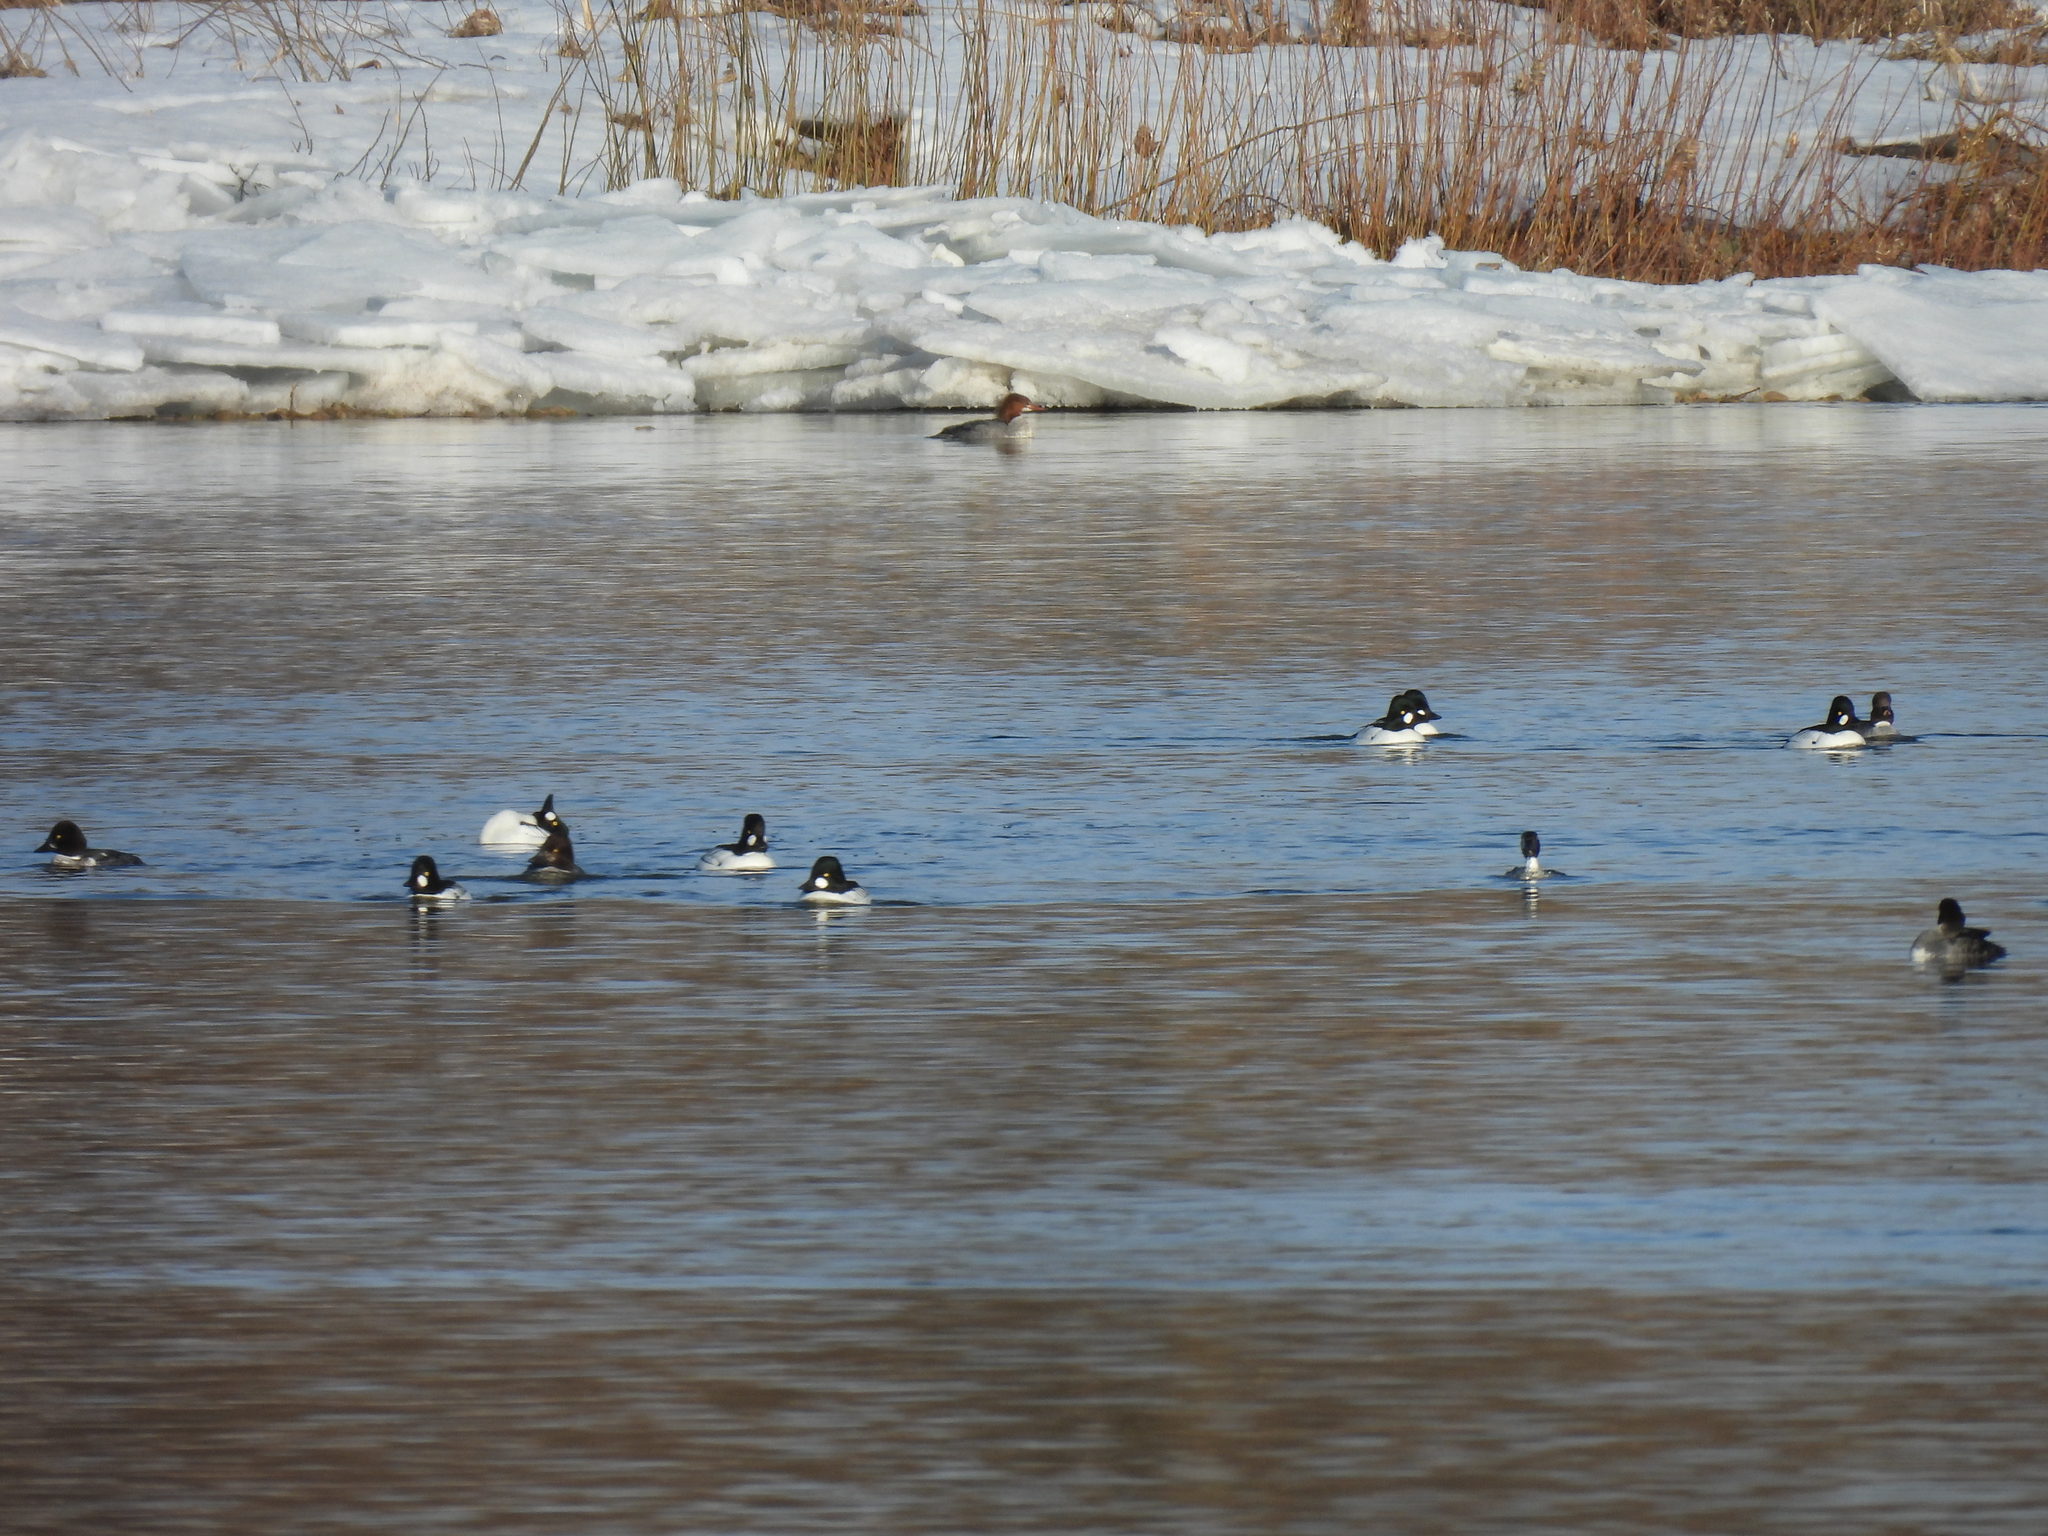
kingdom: Animalia
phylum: Chordata
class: Aves
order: Anseriformes
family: Anatidae
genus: Bucephala
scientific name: Bucephala clangula
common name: Common goldeneye
